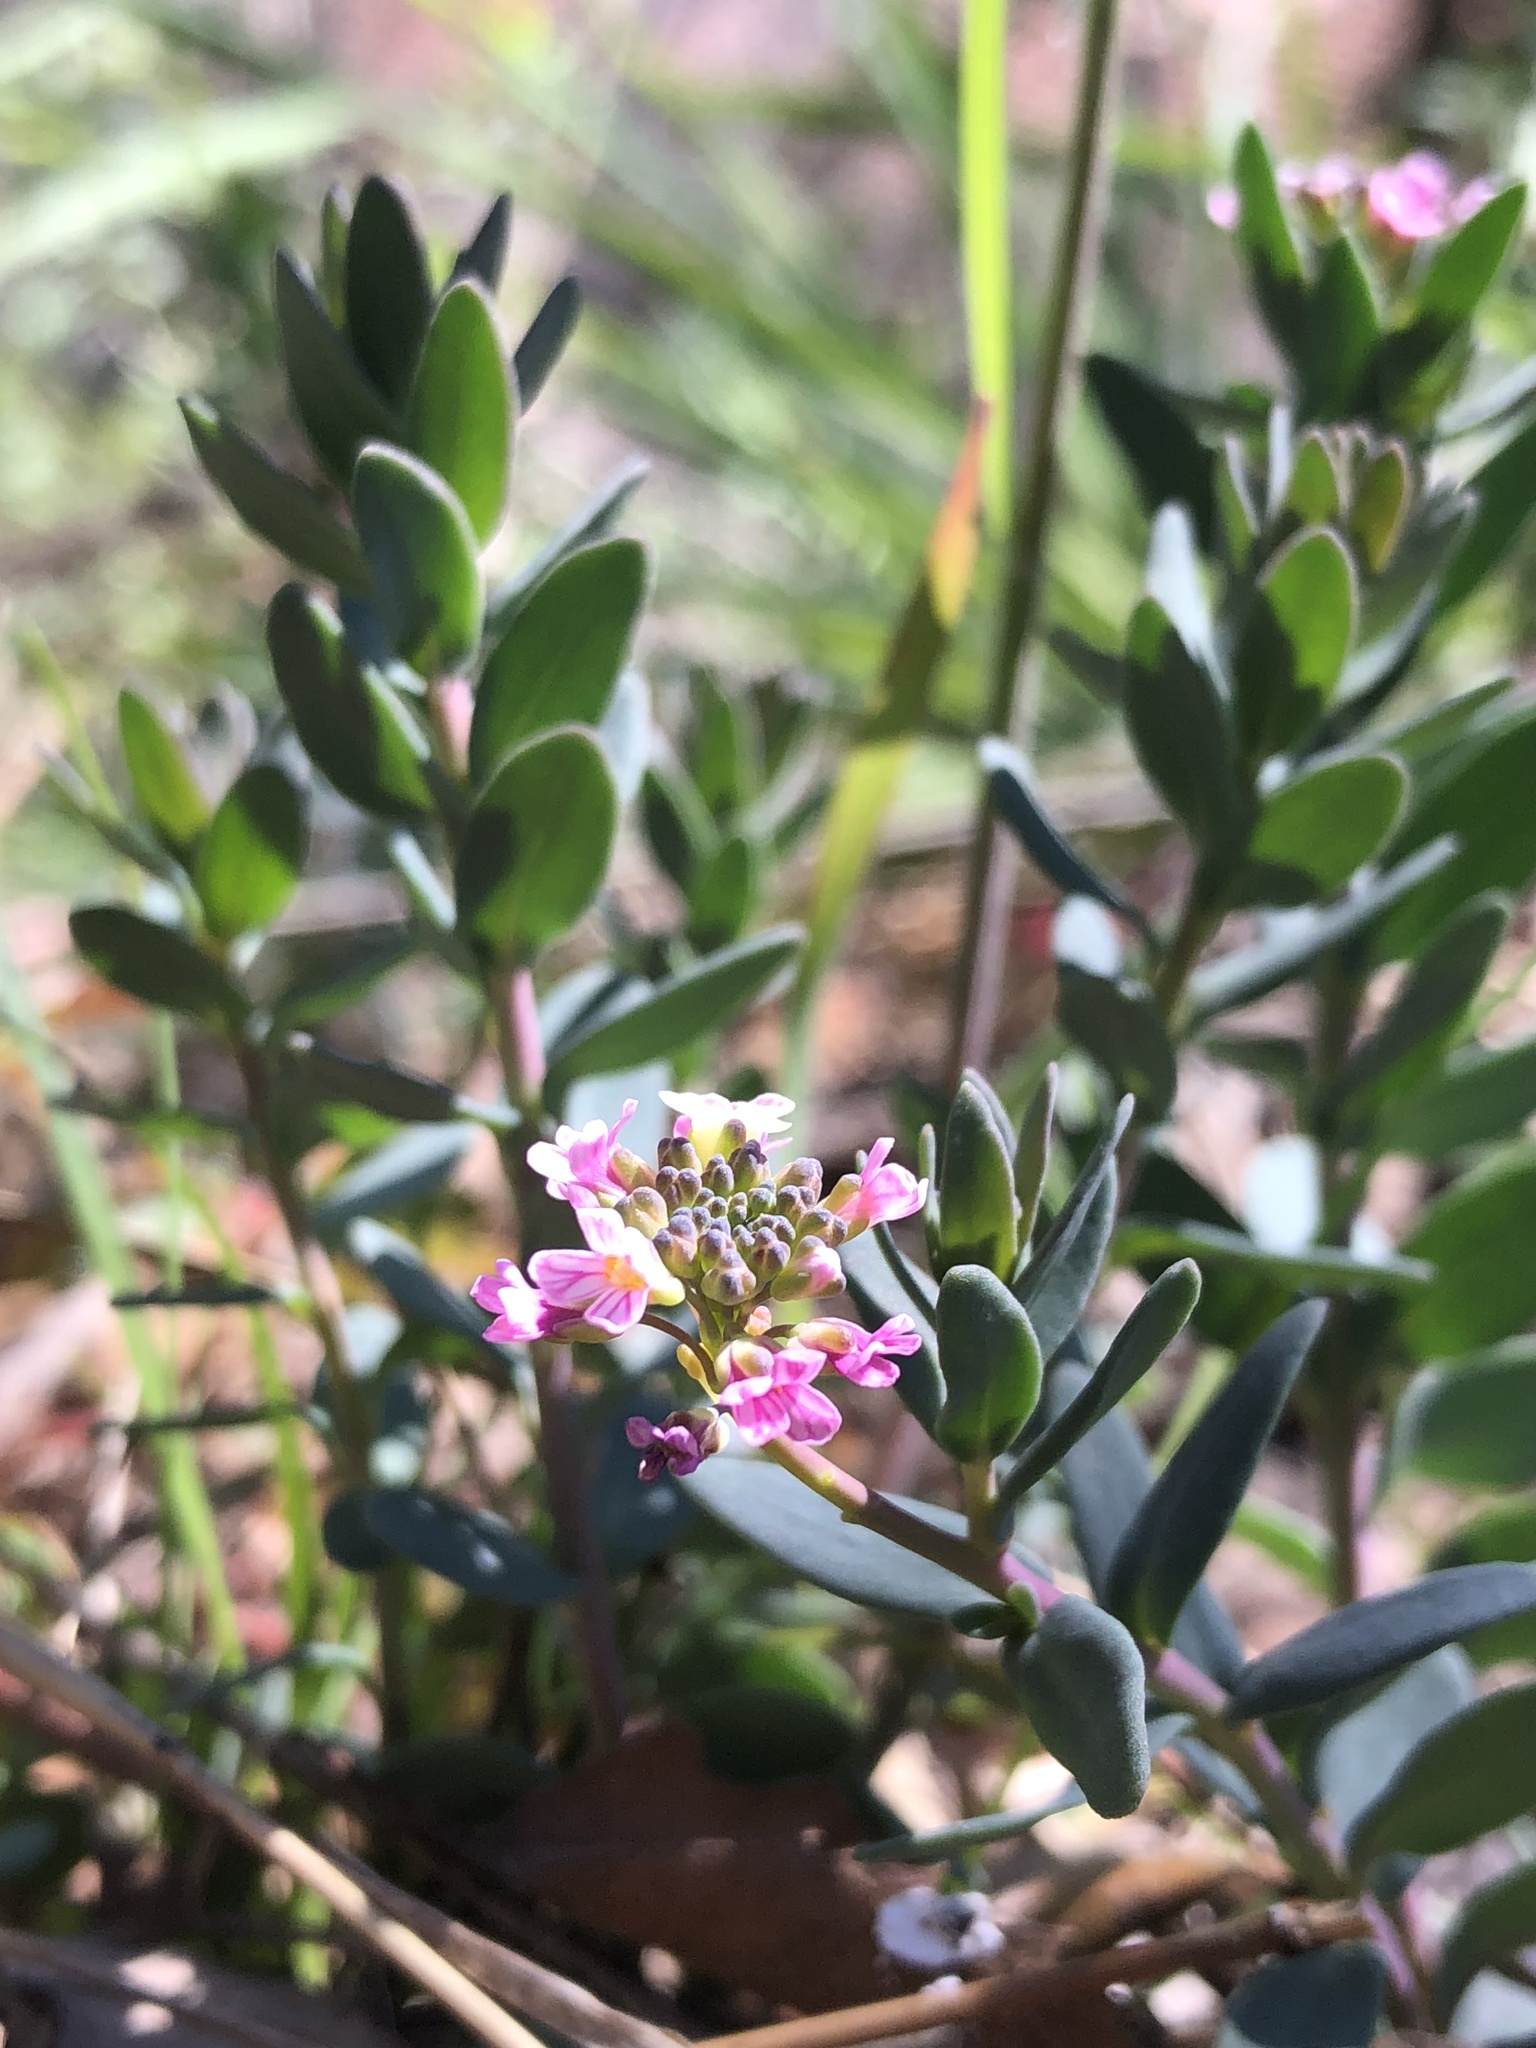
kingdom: Plantae
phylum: Tracheophyta
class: Magnoliopsida
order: Brassicales
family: Brassicaceae
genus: Aethionema
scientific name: Aethionema saxatile
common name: Burnt candytuft
